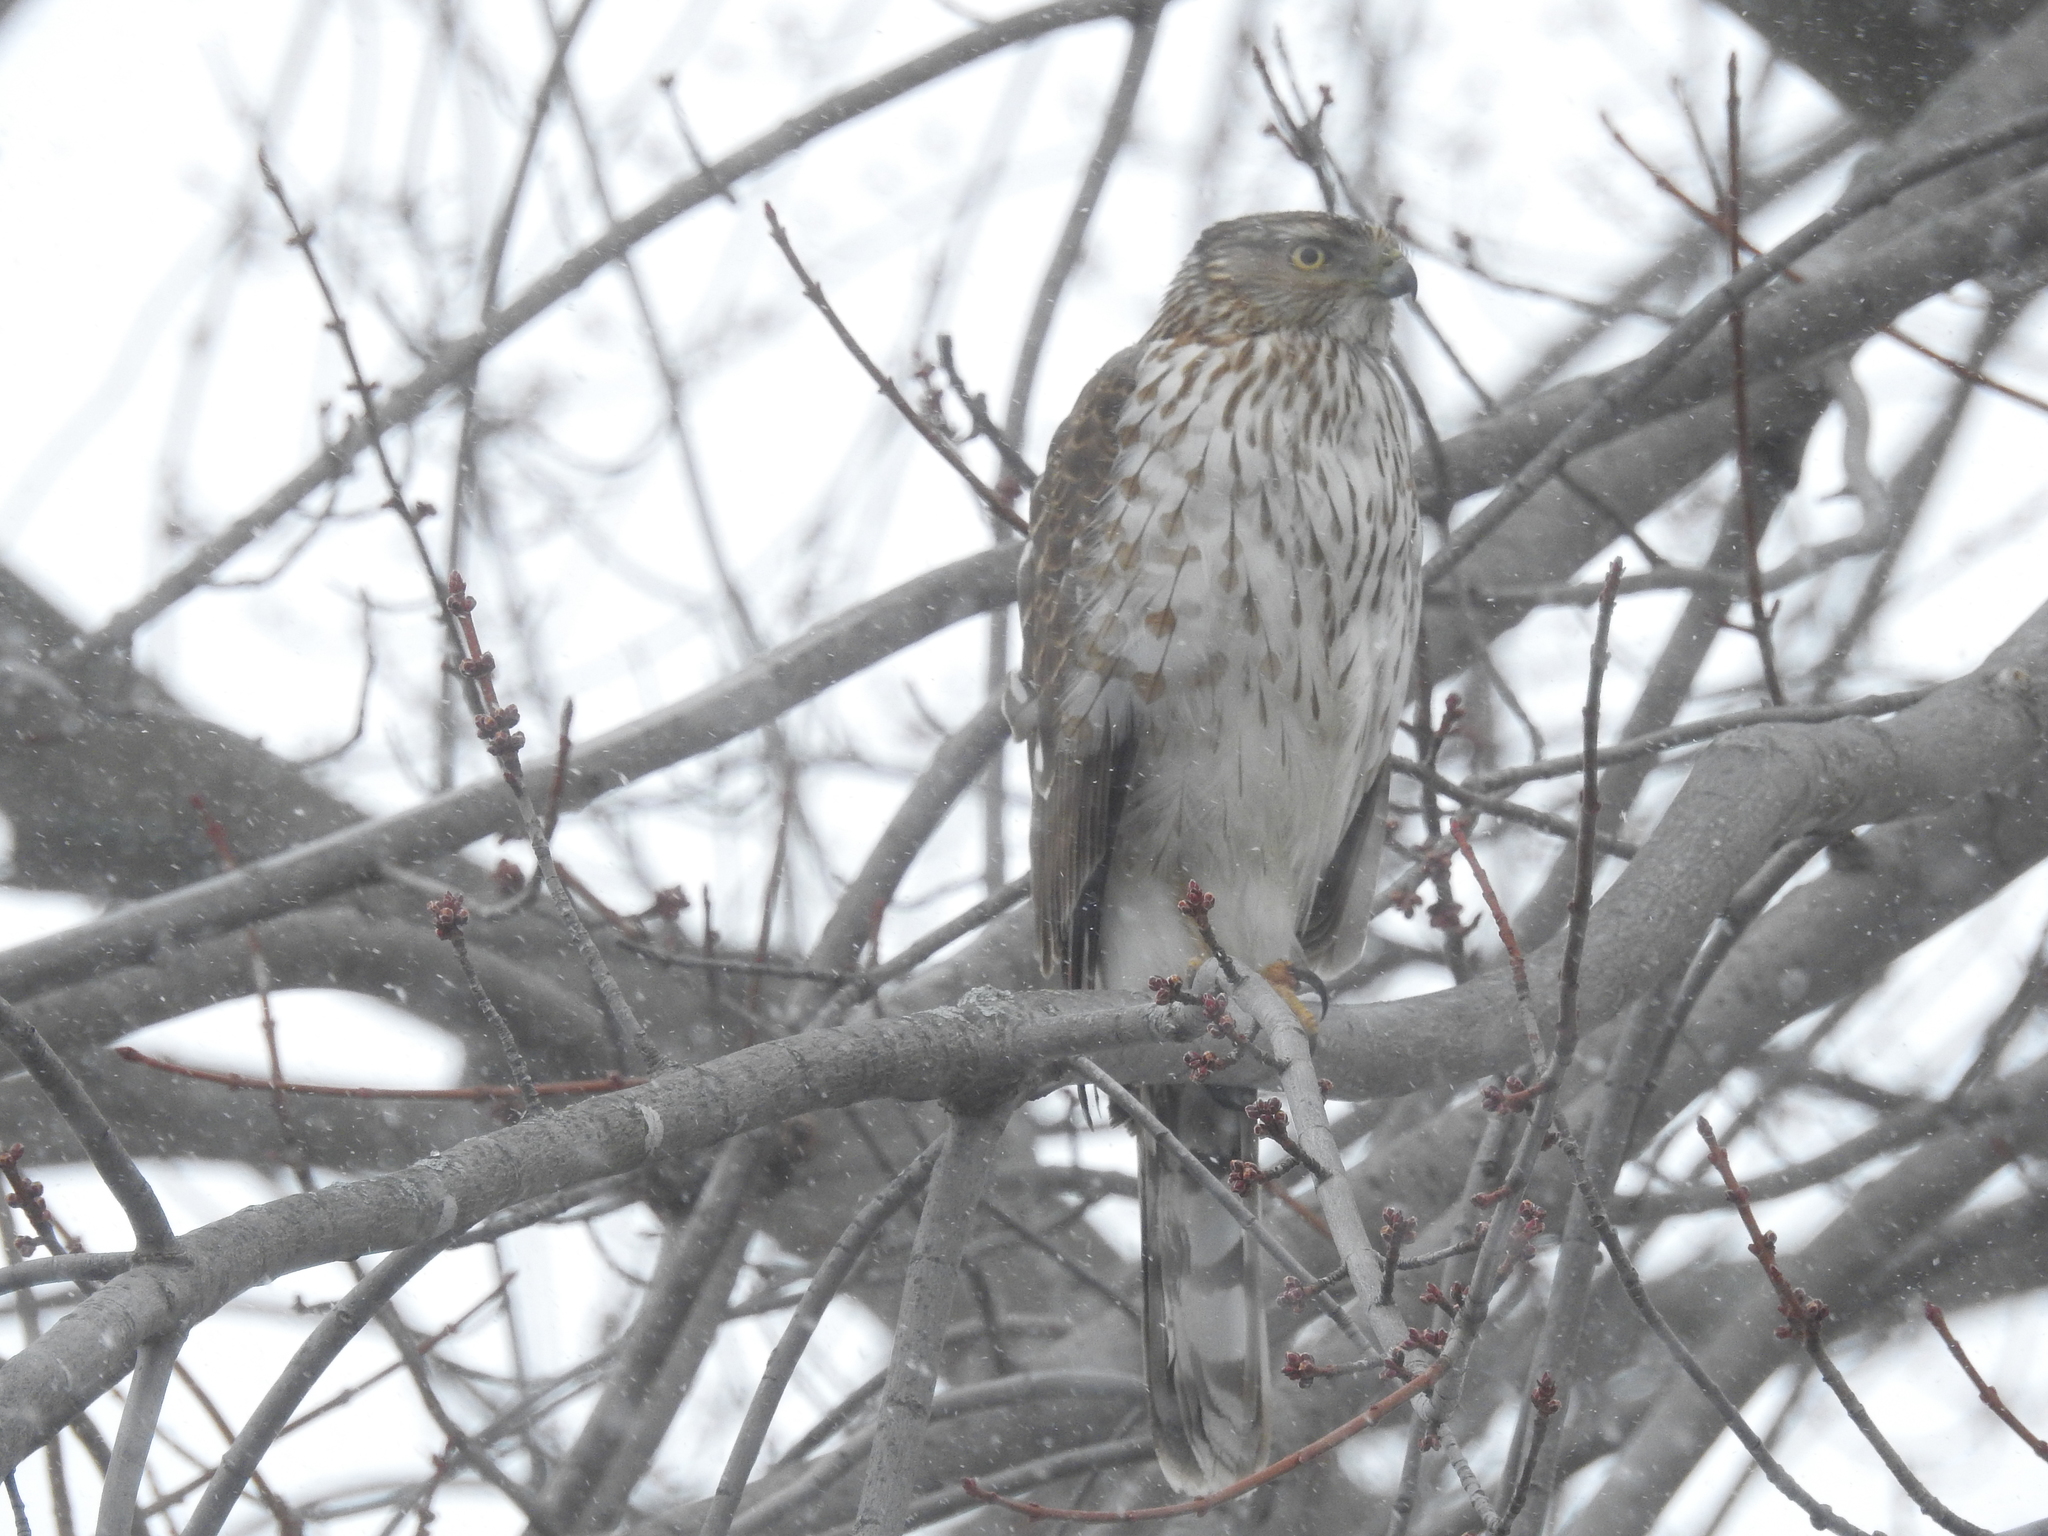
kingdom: Animalia
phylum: Chordata
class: Aves
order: Accipitriformes
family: Accipitridae
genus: Accipiter
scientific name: Accipiter cooperii
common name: Cooper's hawk
